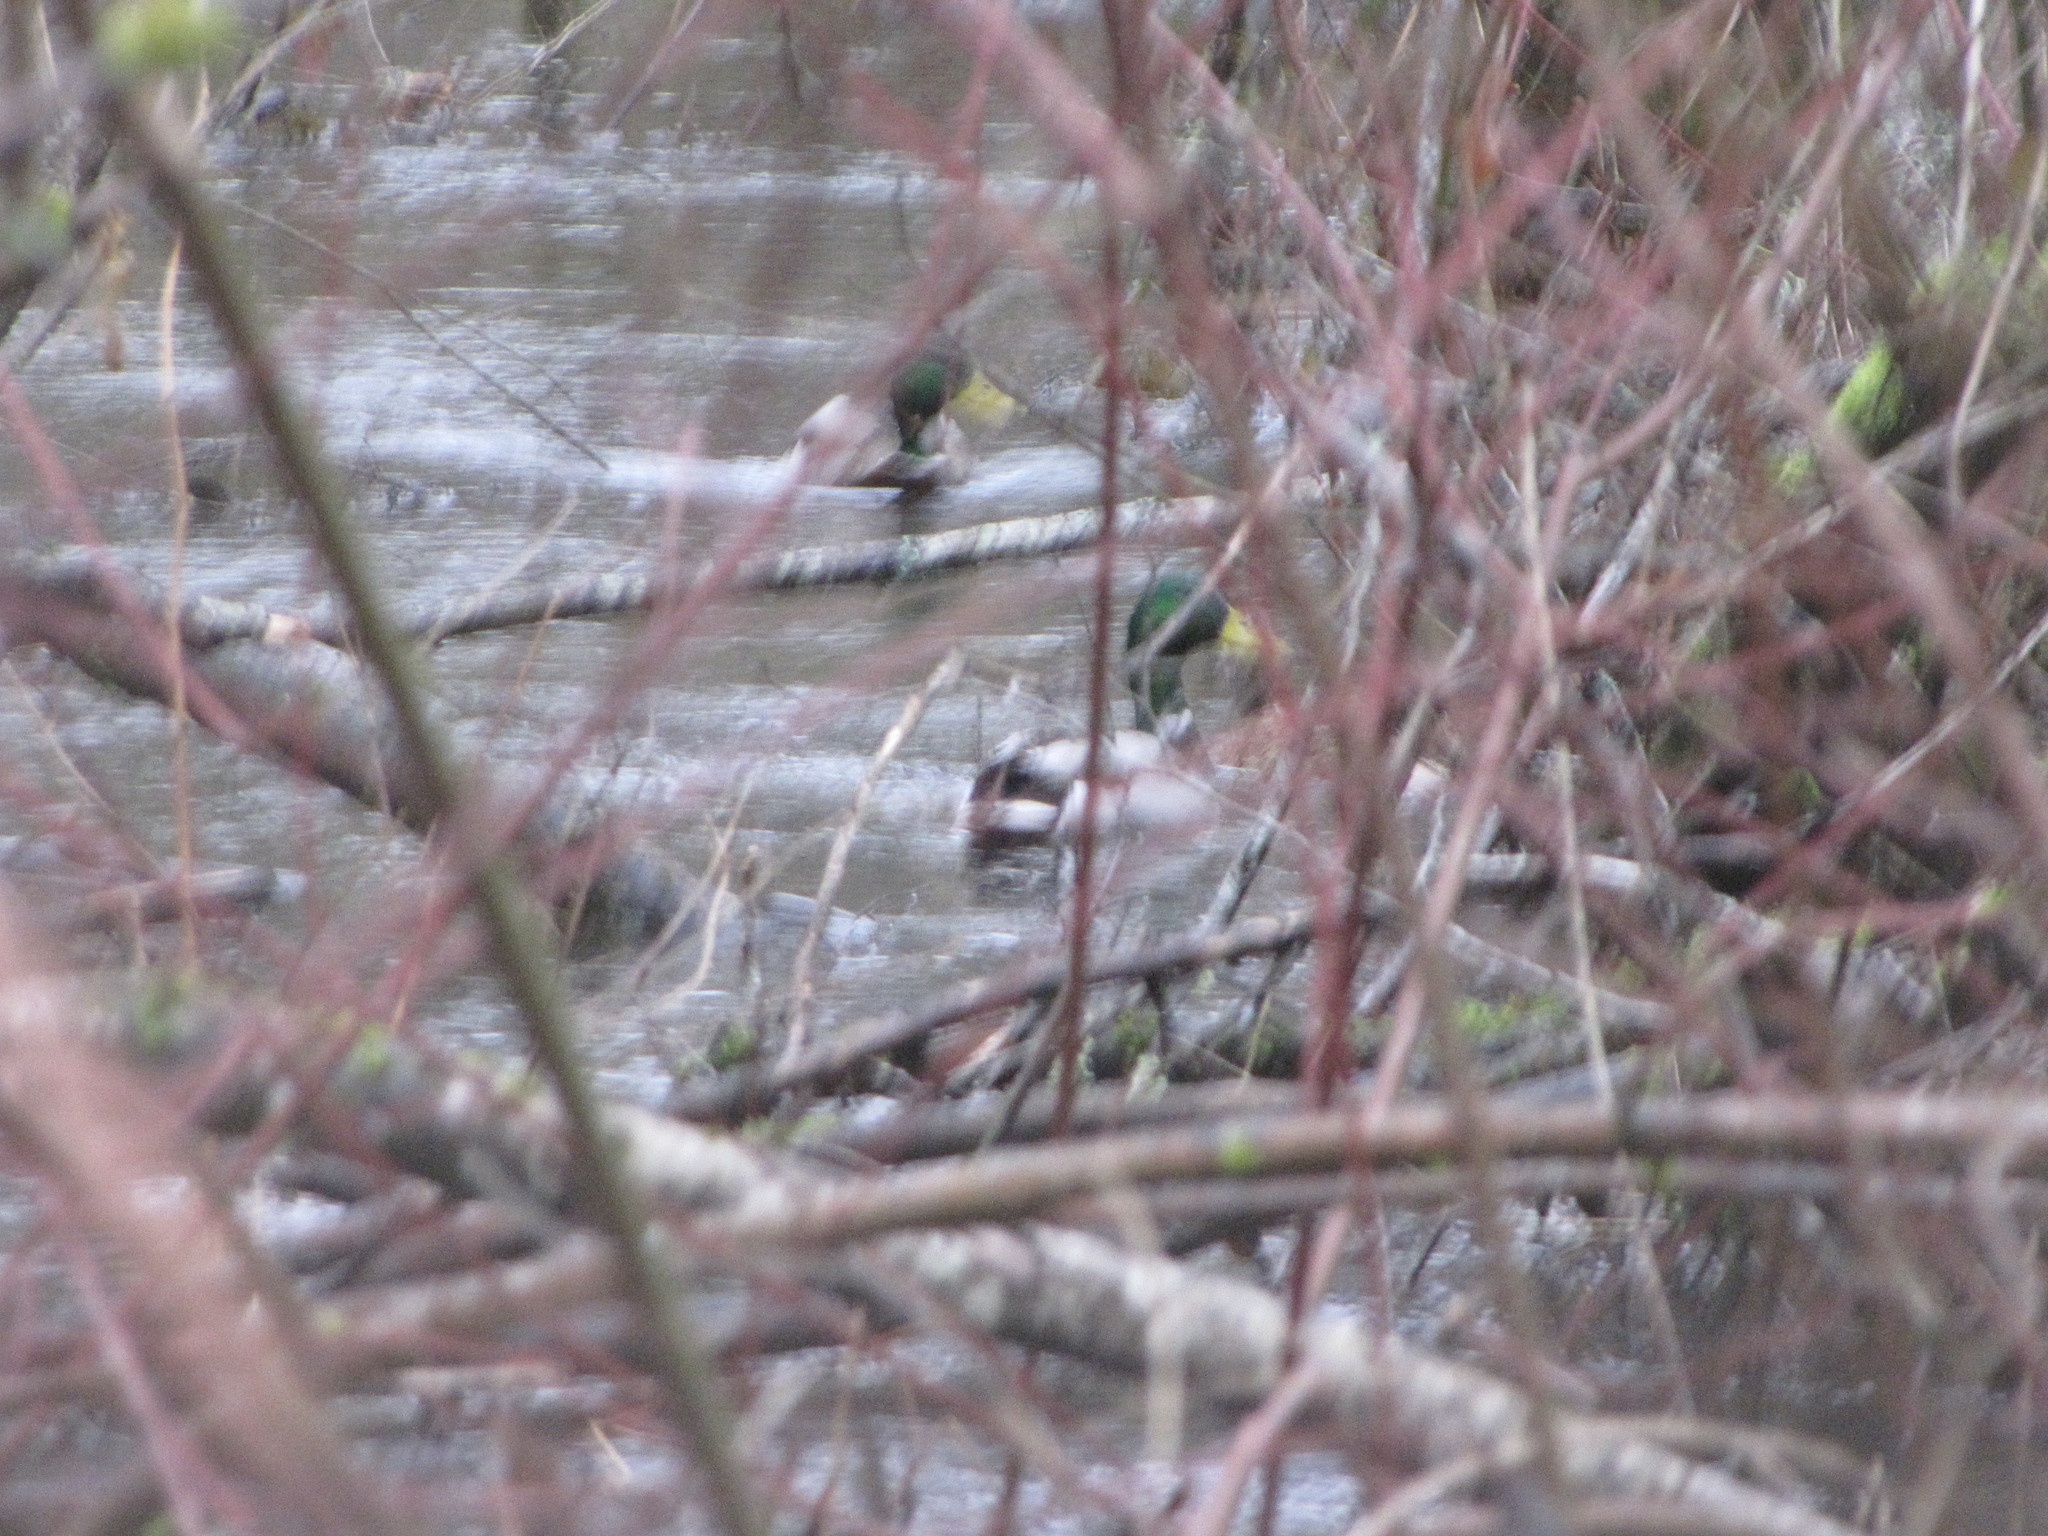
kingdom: Animalia
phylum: Chordata
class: Aves
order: Anseriformes
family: Anatidae
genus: Anas
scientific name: Anas platyrhynchos
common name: Mallard
